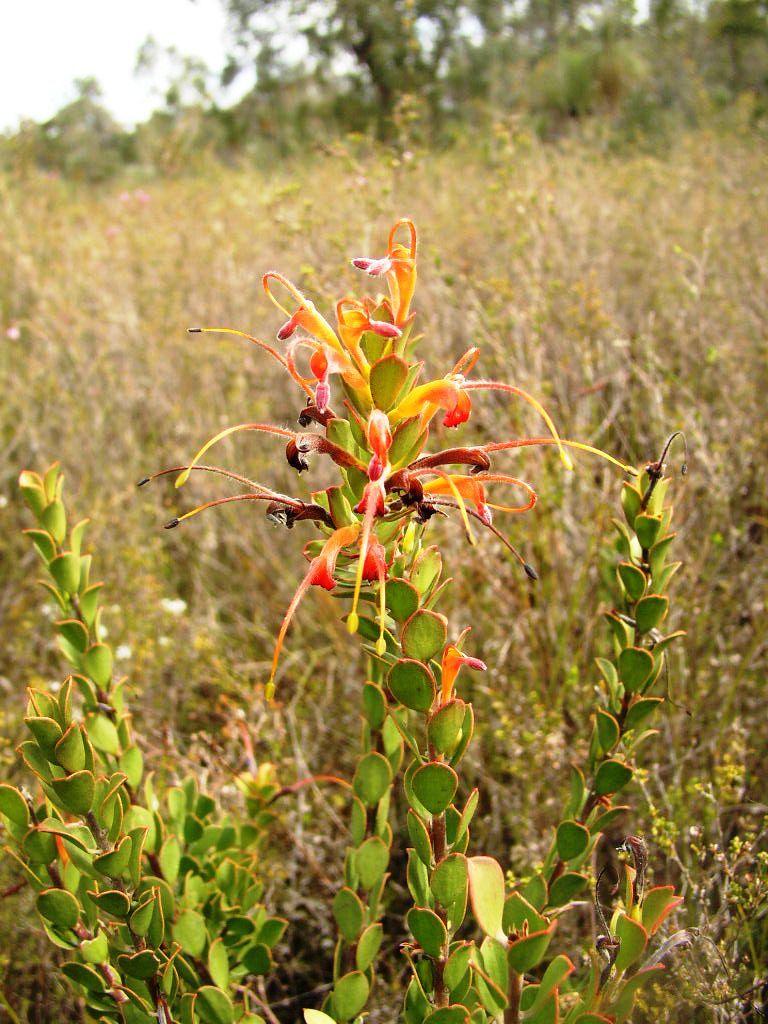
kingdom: Plantae
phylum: Tracheophyta
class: Magnoliopsida
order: Proteales
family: Proteaceae
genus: Adenanthos
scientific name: Adenanthos obovatus
